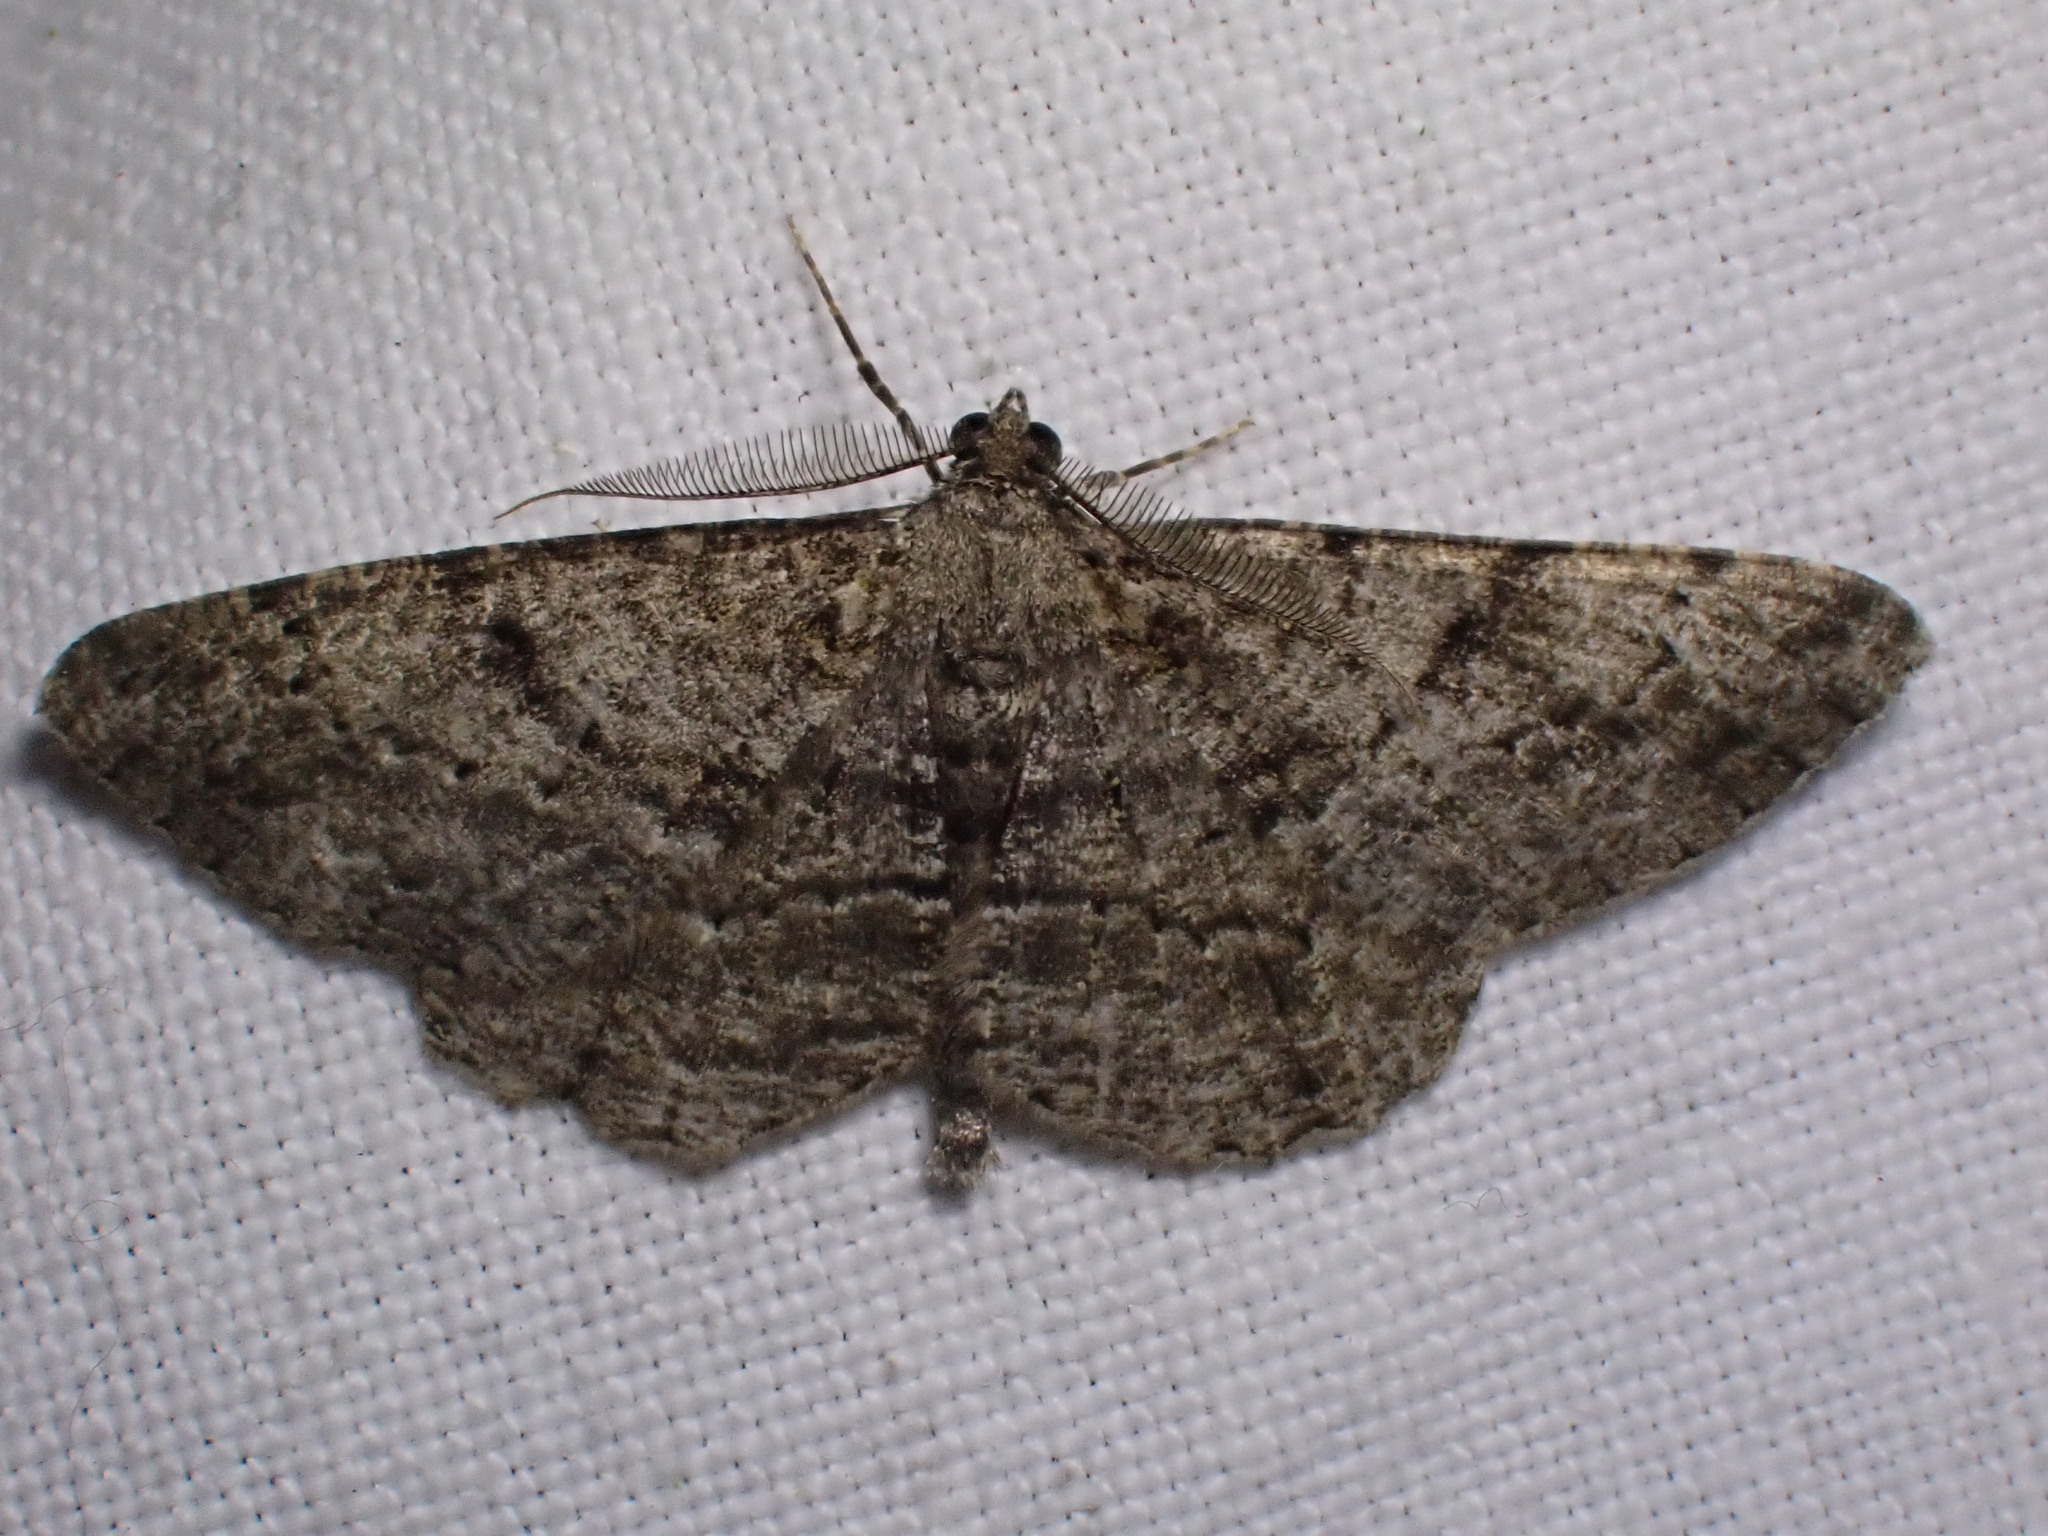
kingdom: Animalia
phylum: Arthropoda
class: Insecta
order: Lepidoptera
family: Geometridae
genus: Peribatodes
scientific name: Peribatodes rhomboidaria
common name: Willow beauty
